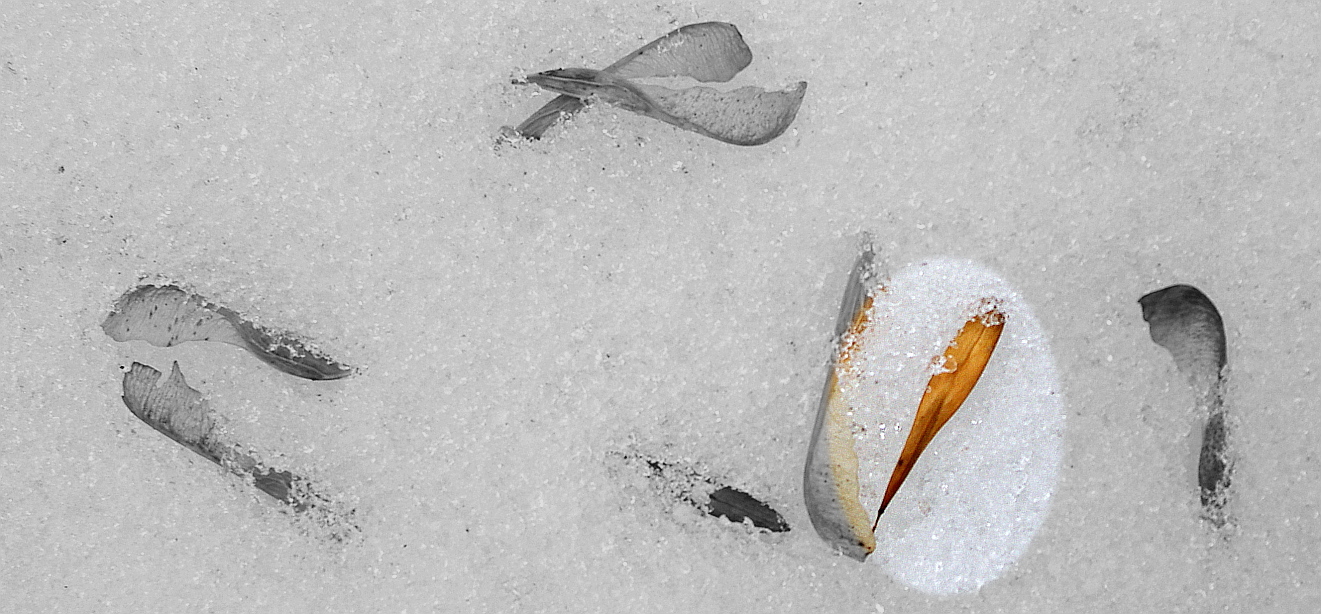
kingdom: Plantae
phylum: Tracheophyta
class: Magnoliopsida
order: Lamiales
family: Oleaceae
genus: Fraxinus
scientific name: Fraxinus pennsylvanica
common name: Green ash
